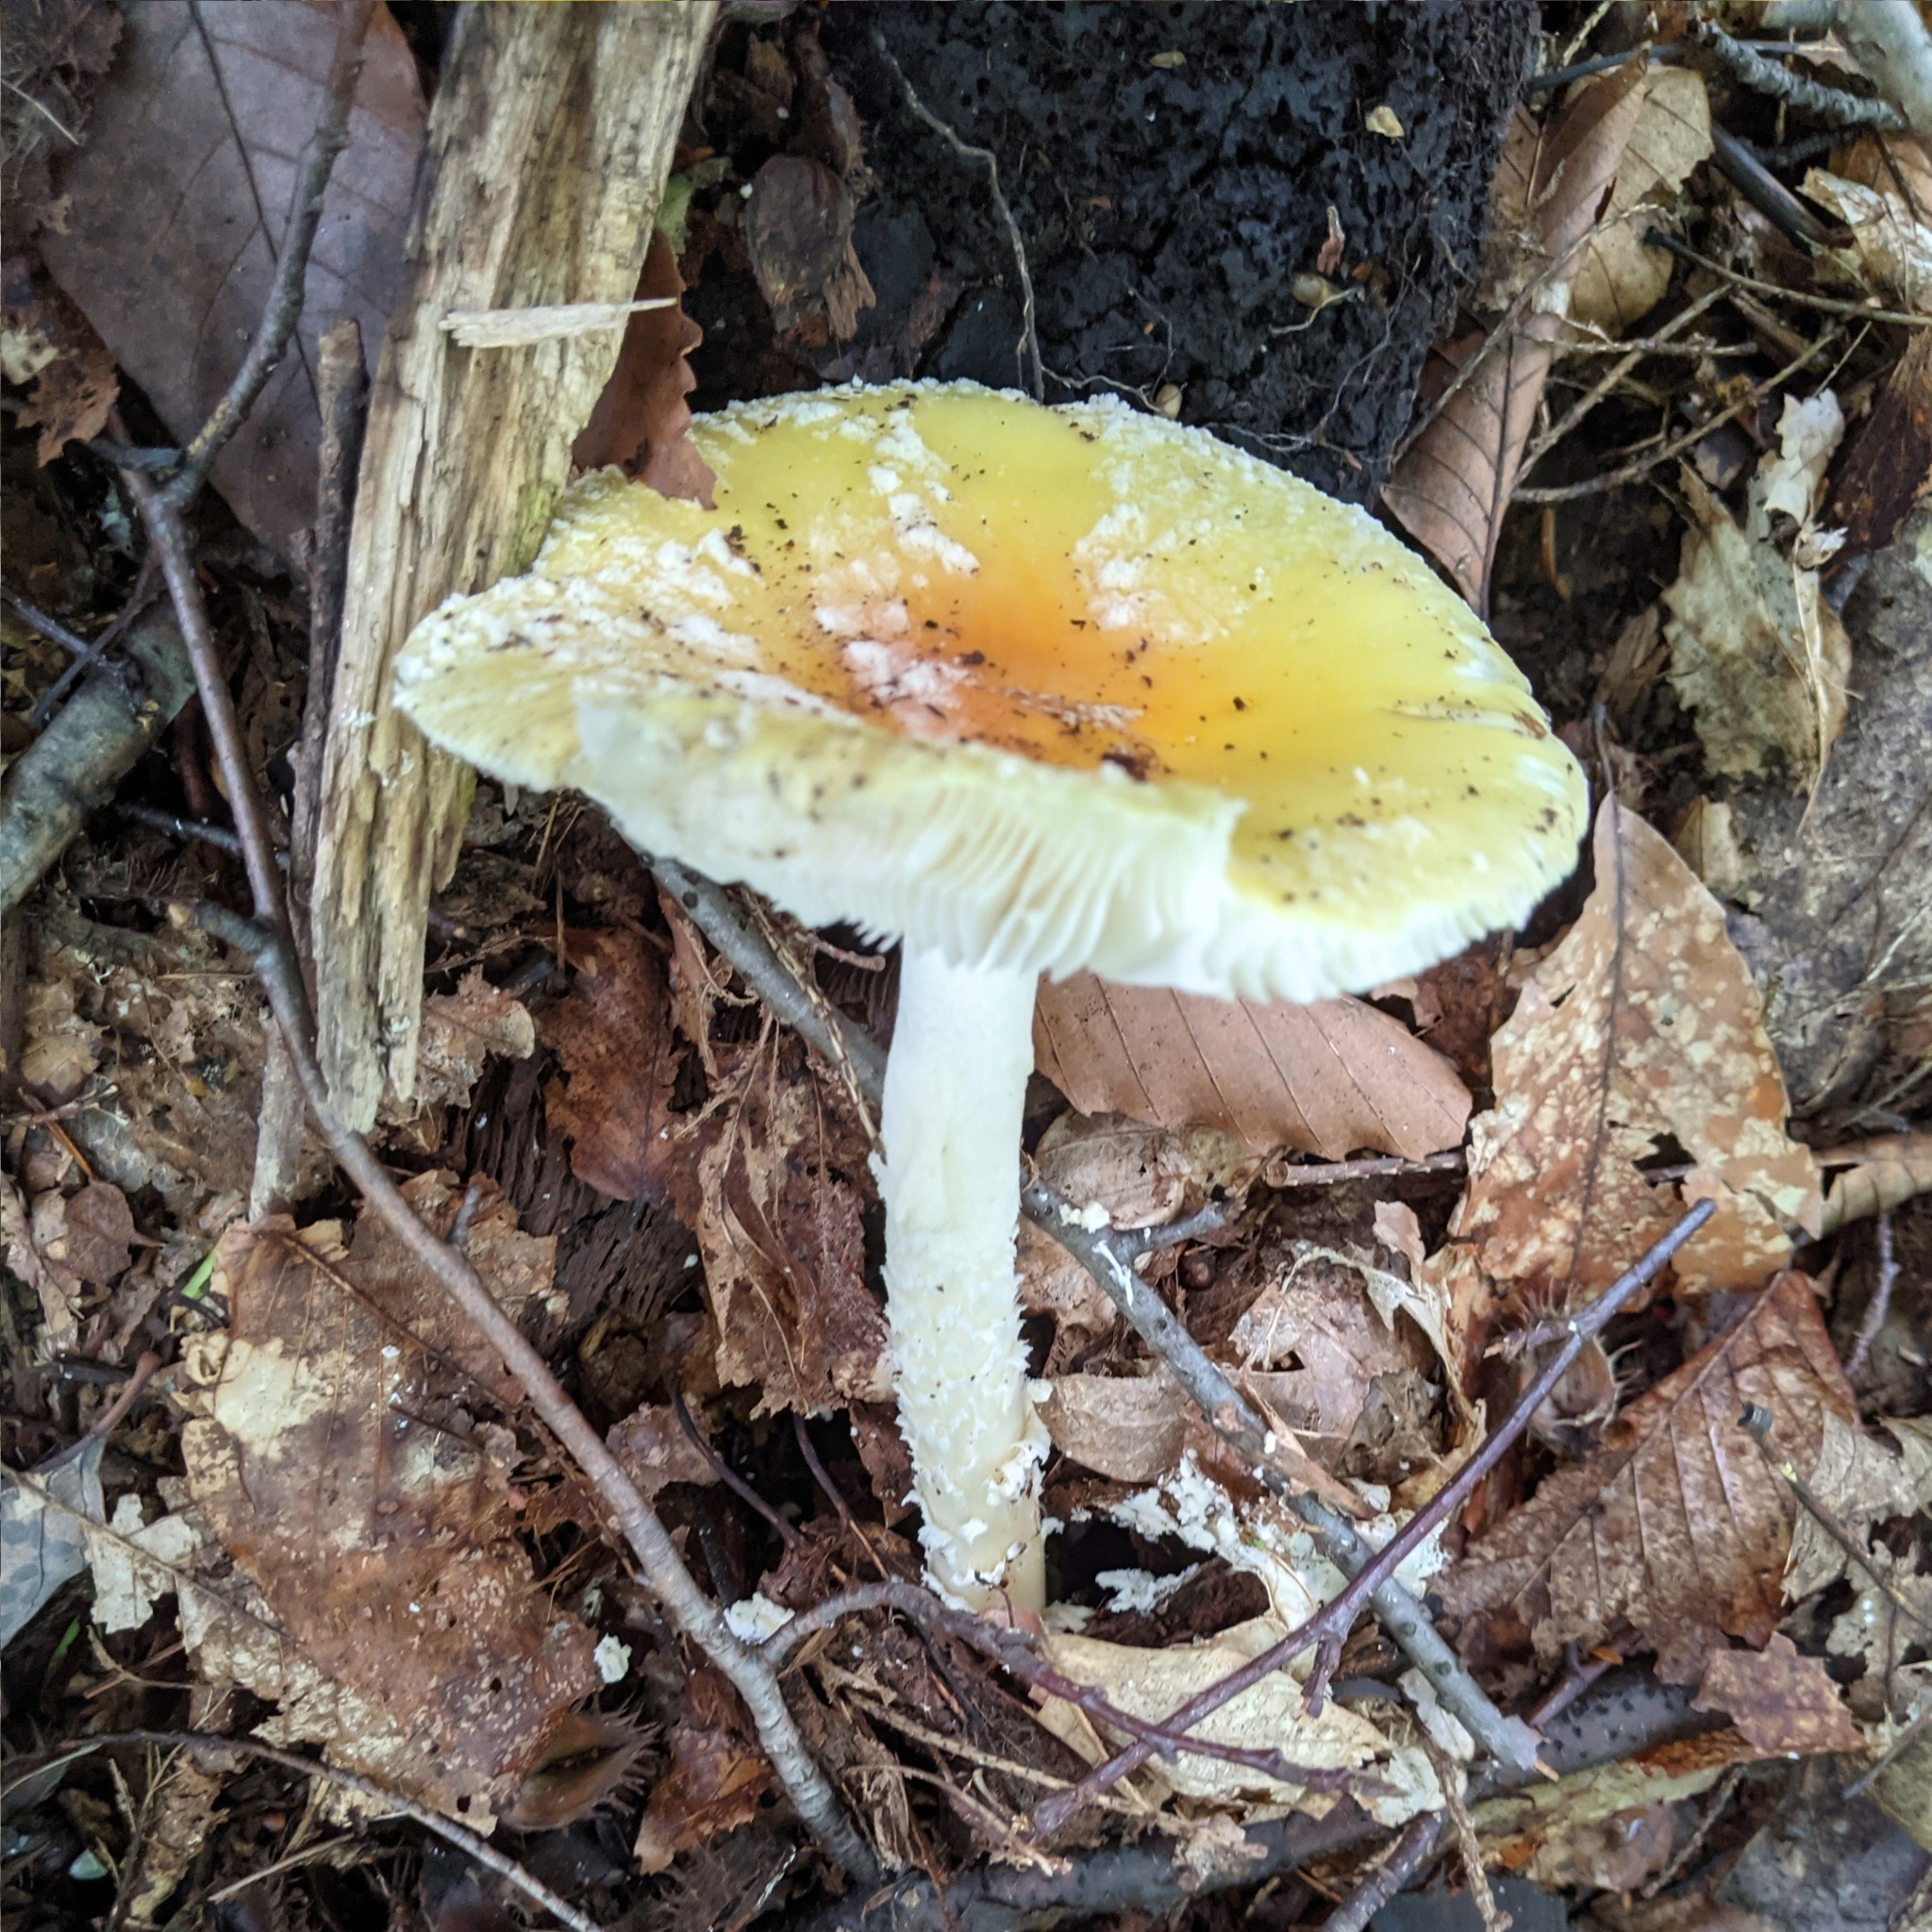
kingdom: Fungi
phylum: Basidiomycota
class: Agaricomycetes
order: Agaricales
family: Amanitaceae
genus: Amanita
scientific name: Amanita muscaria
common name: Fly agaric
